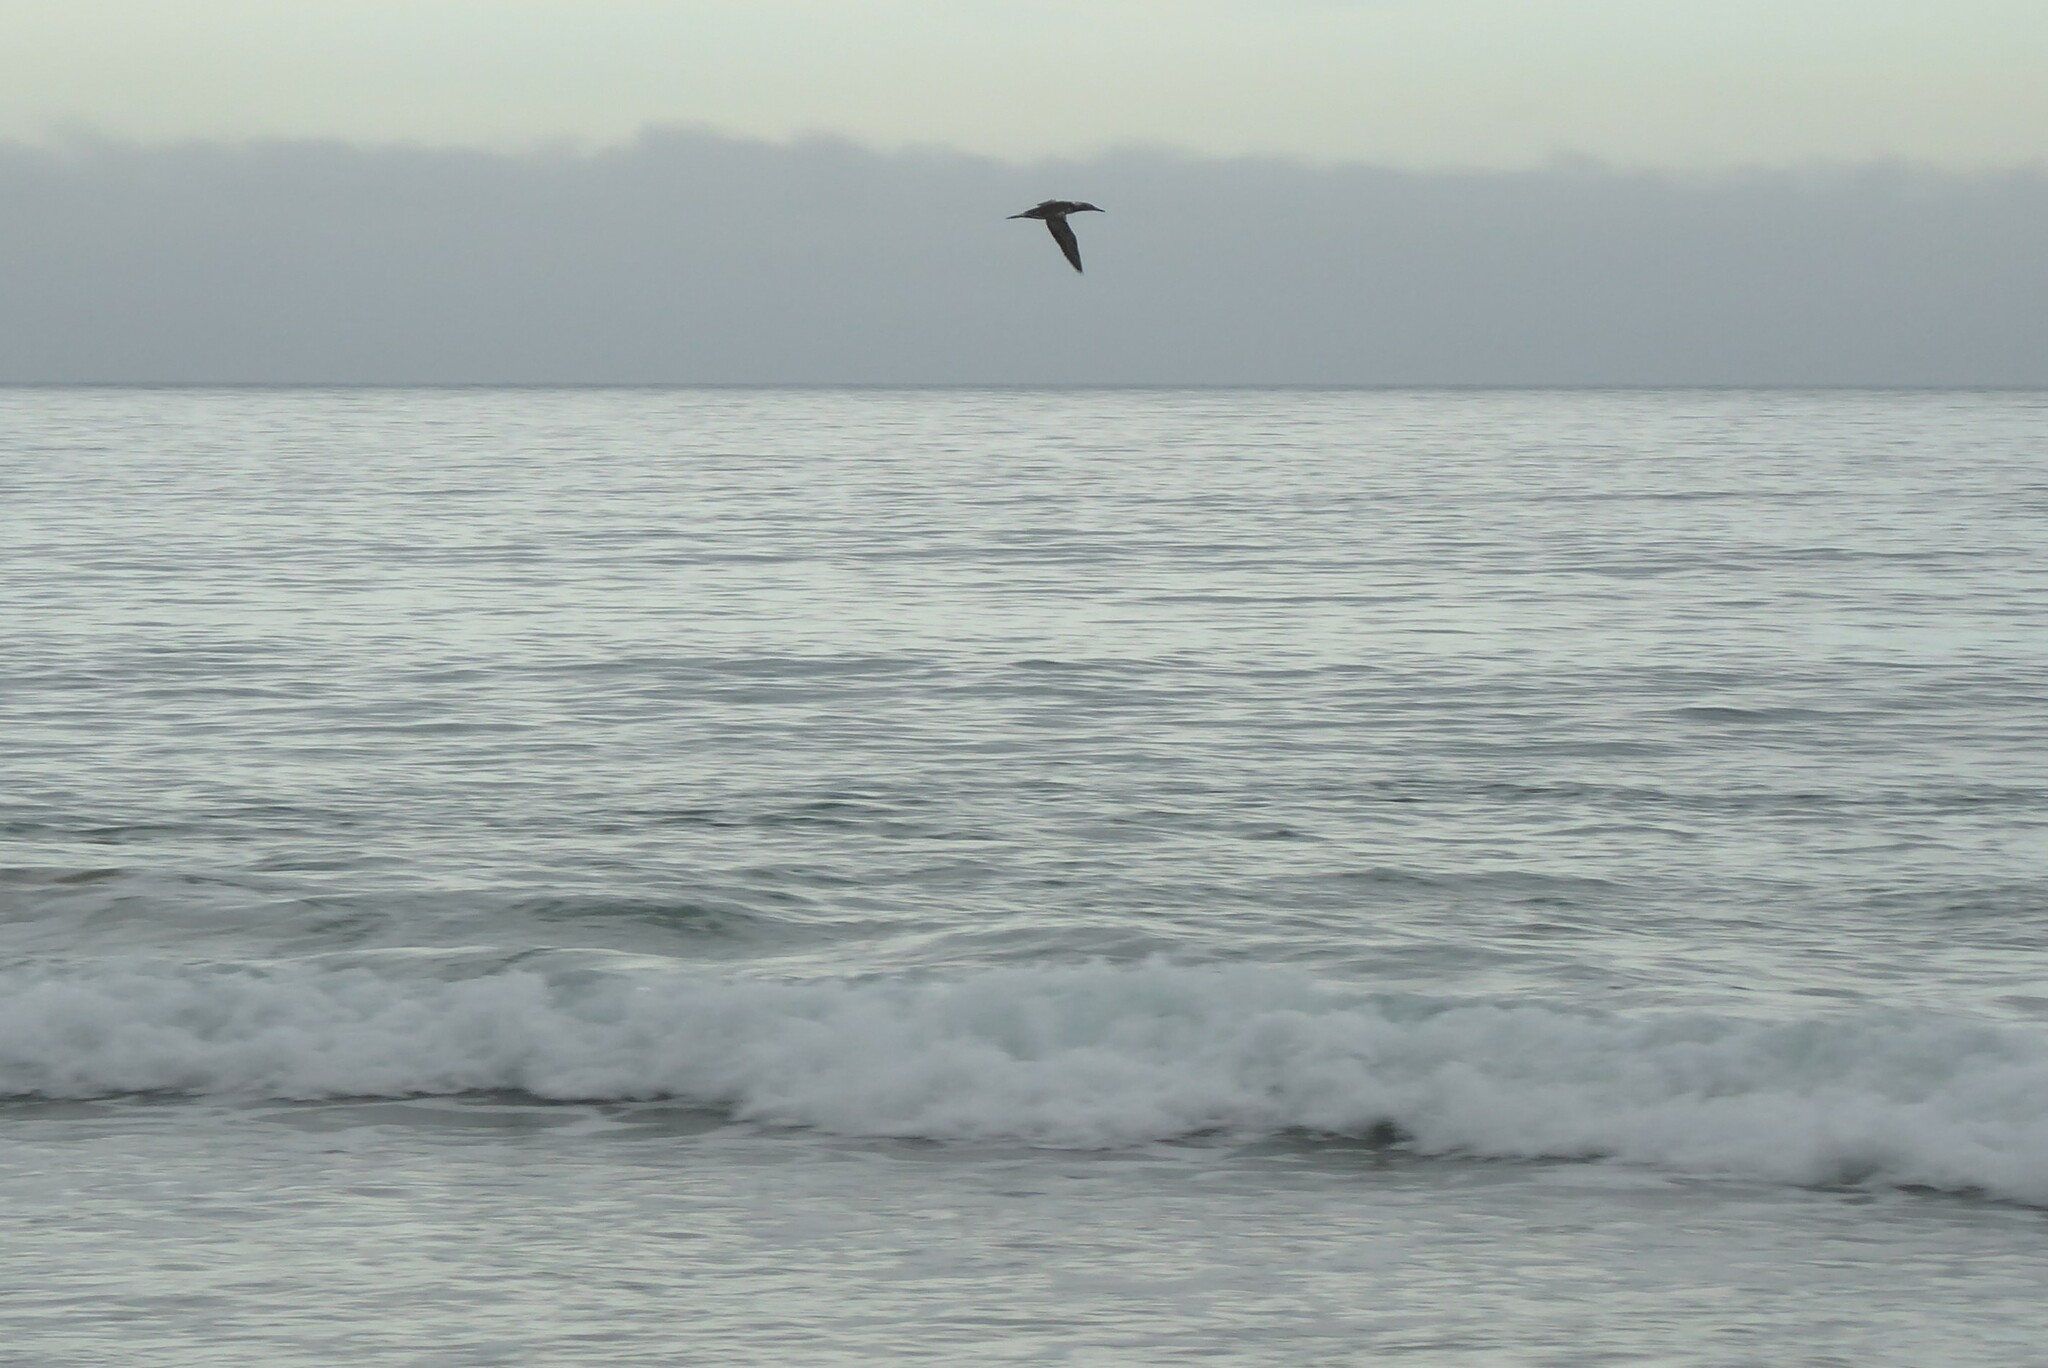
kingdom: Animalia
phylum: Chordata
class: Aves
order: Suliformes
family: Sulidae
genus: Morus
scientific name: Morus serrator
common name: Australasian gannet
